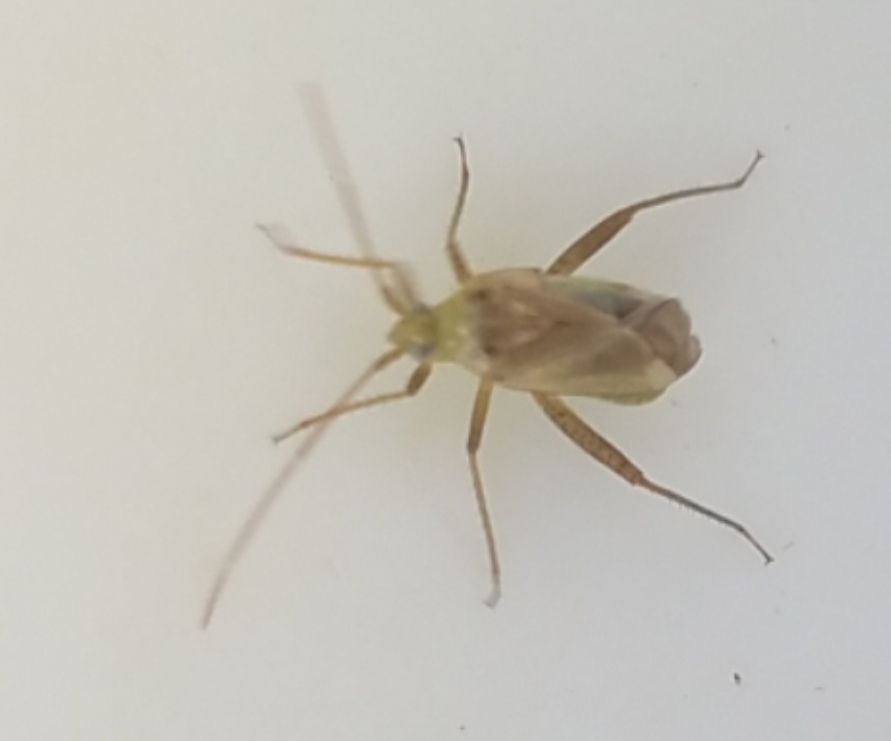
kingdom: Animalia
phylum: Arthropoda
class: Insecta
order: Hemiptera
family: Miridae
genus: Adelphocoris
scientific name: Adelphocoris lineolatus
